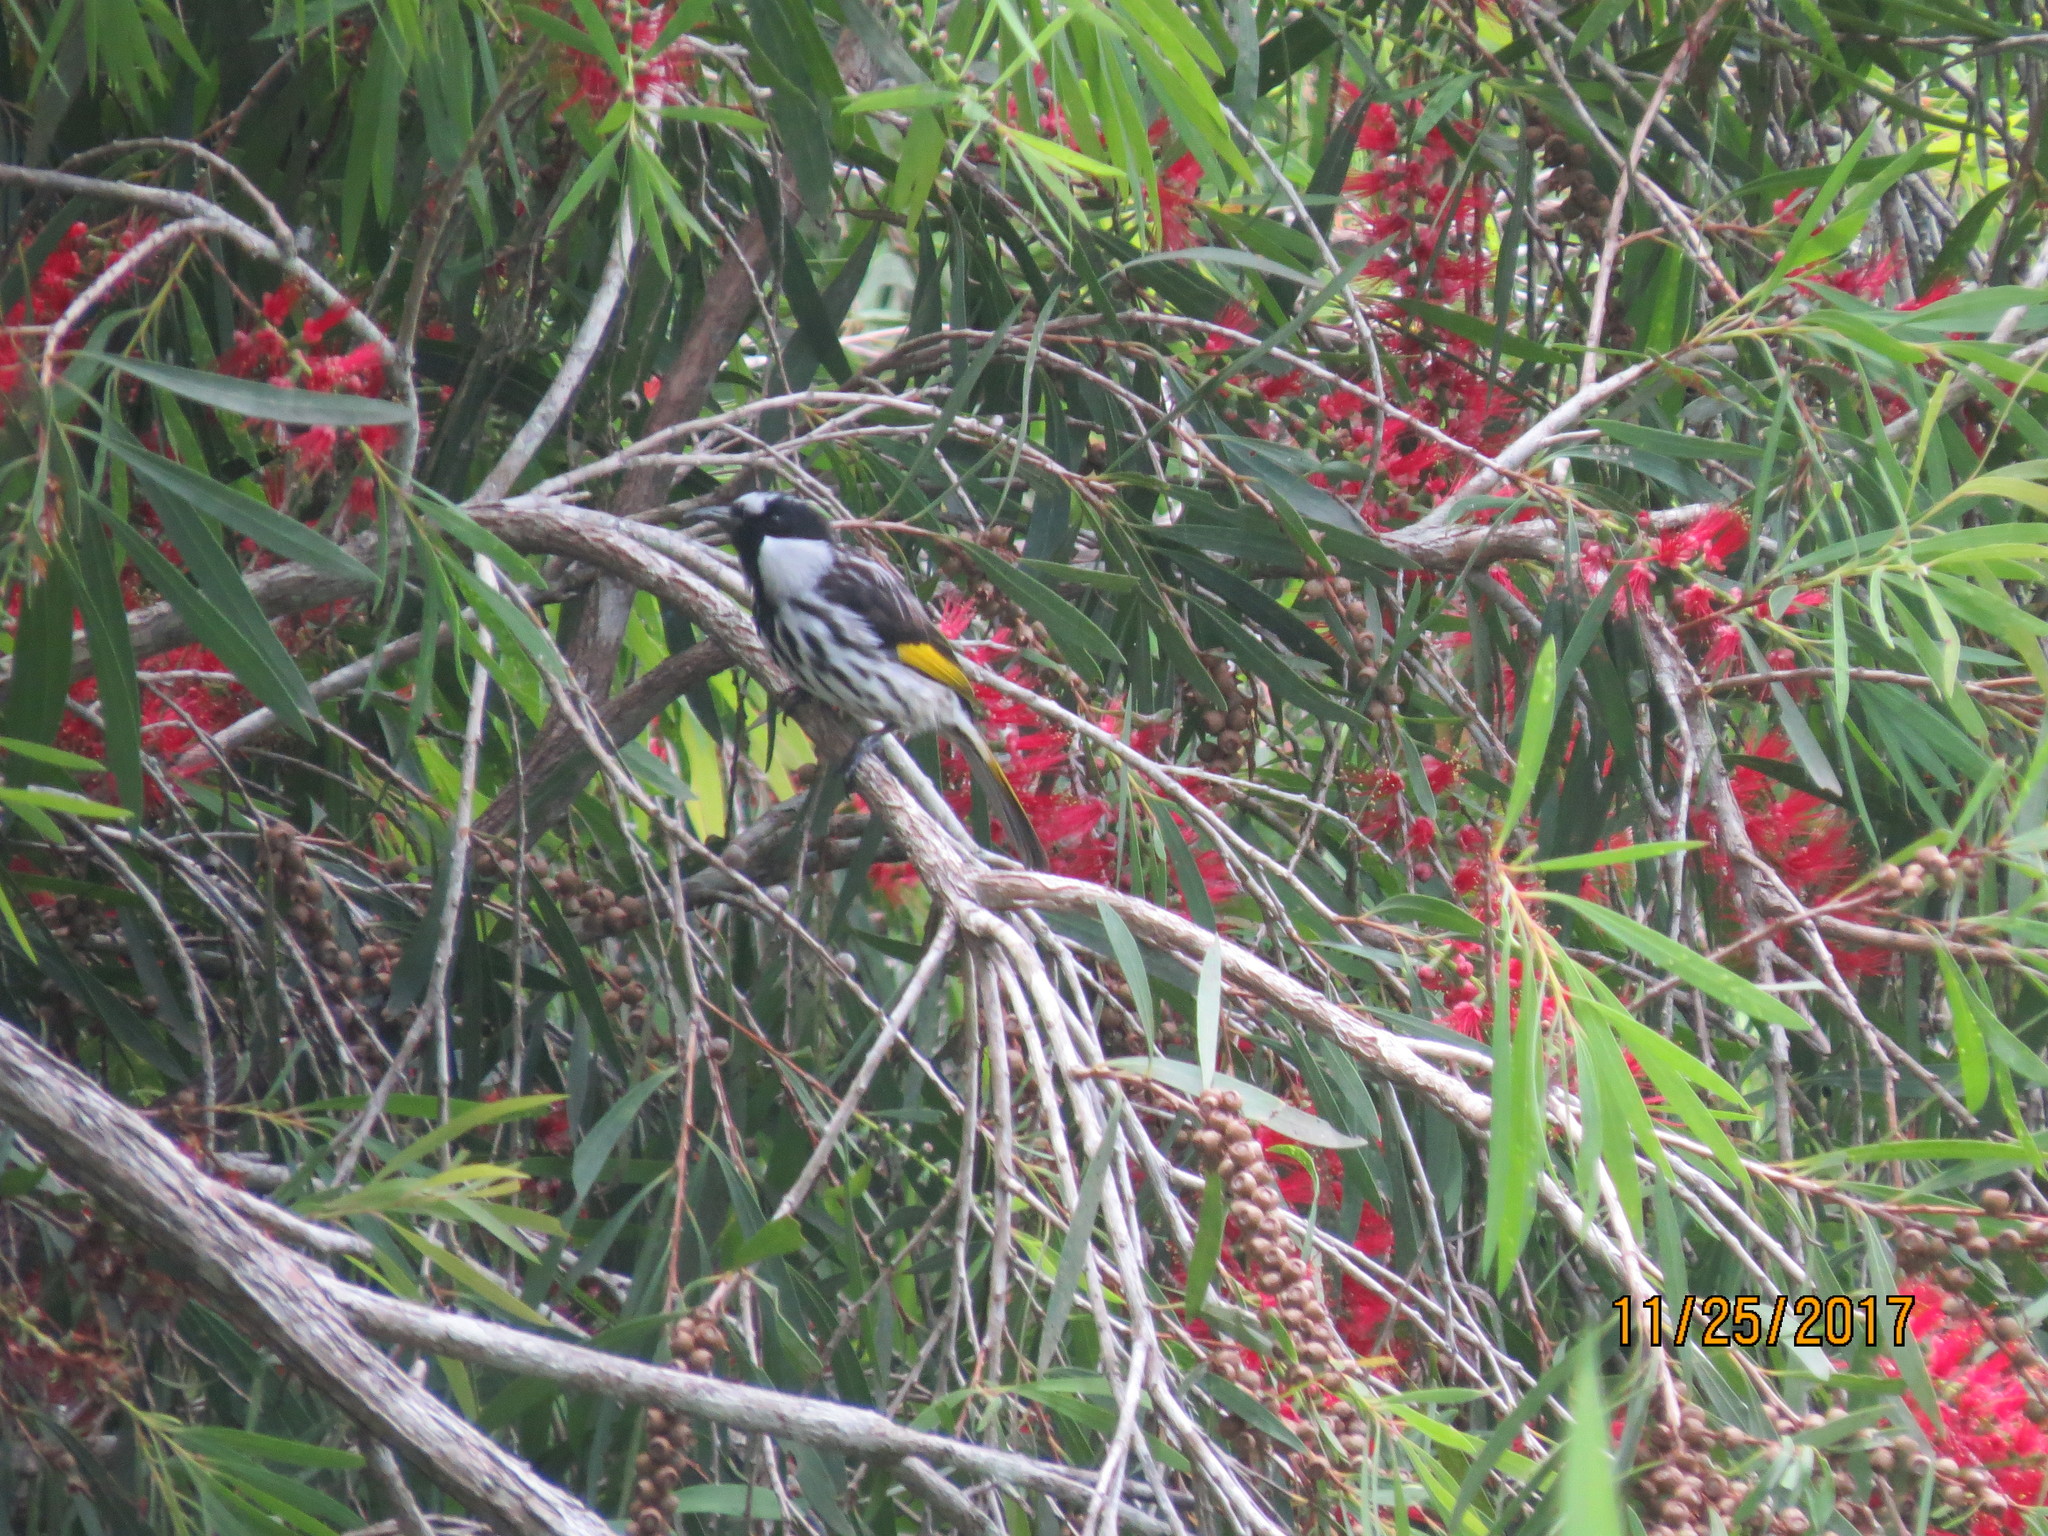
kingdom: Animalia
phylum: Chordata
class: Aves
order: Passeriformes
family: Meliphagidae
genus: Phylidonyris
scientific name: Phylidonyris niger
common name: White-cheeked honeyeater
